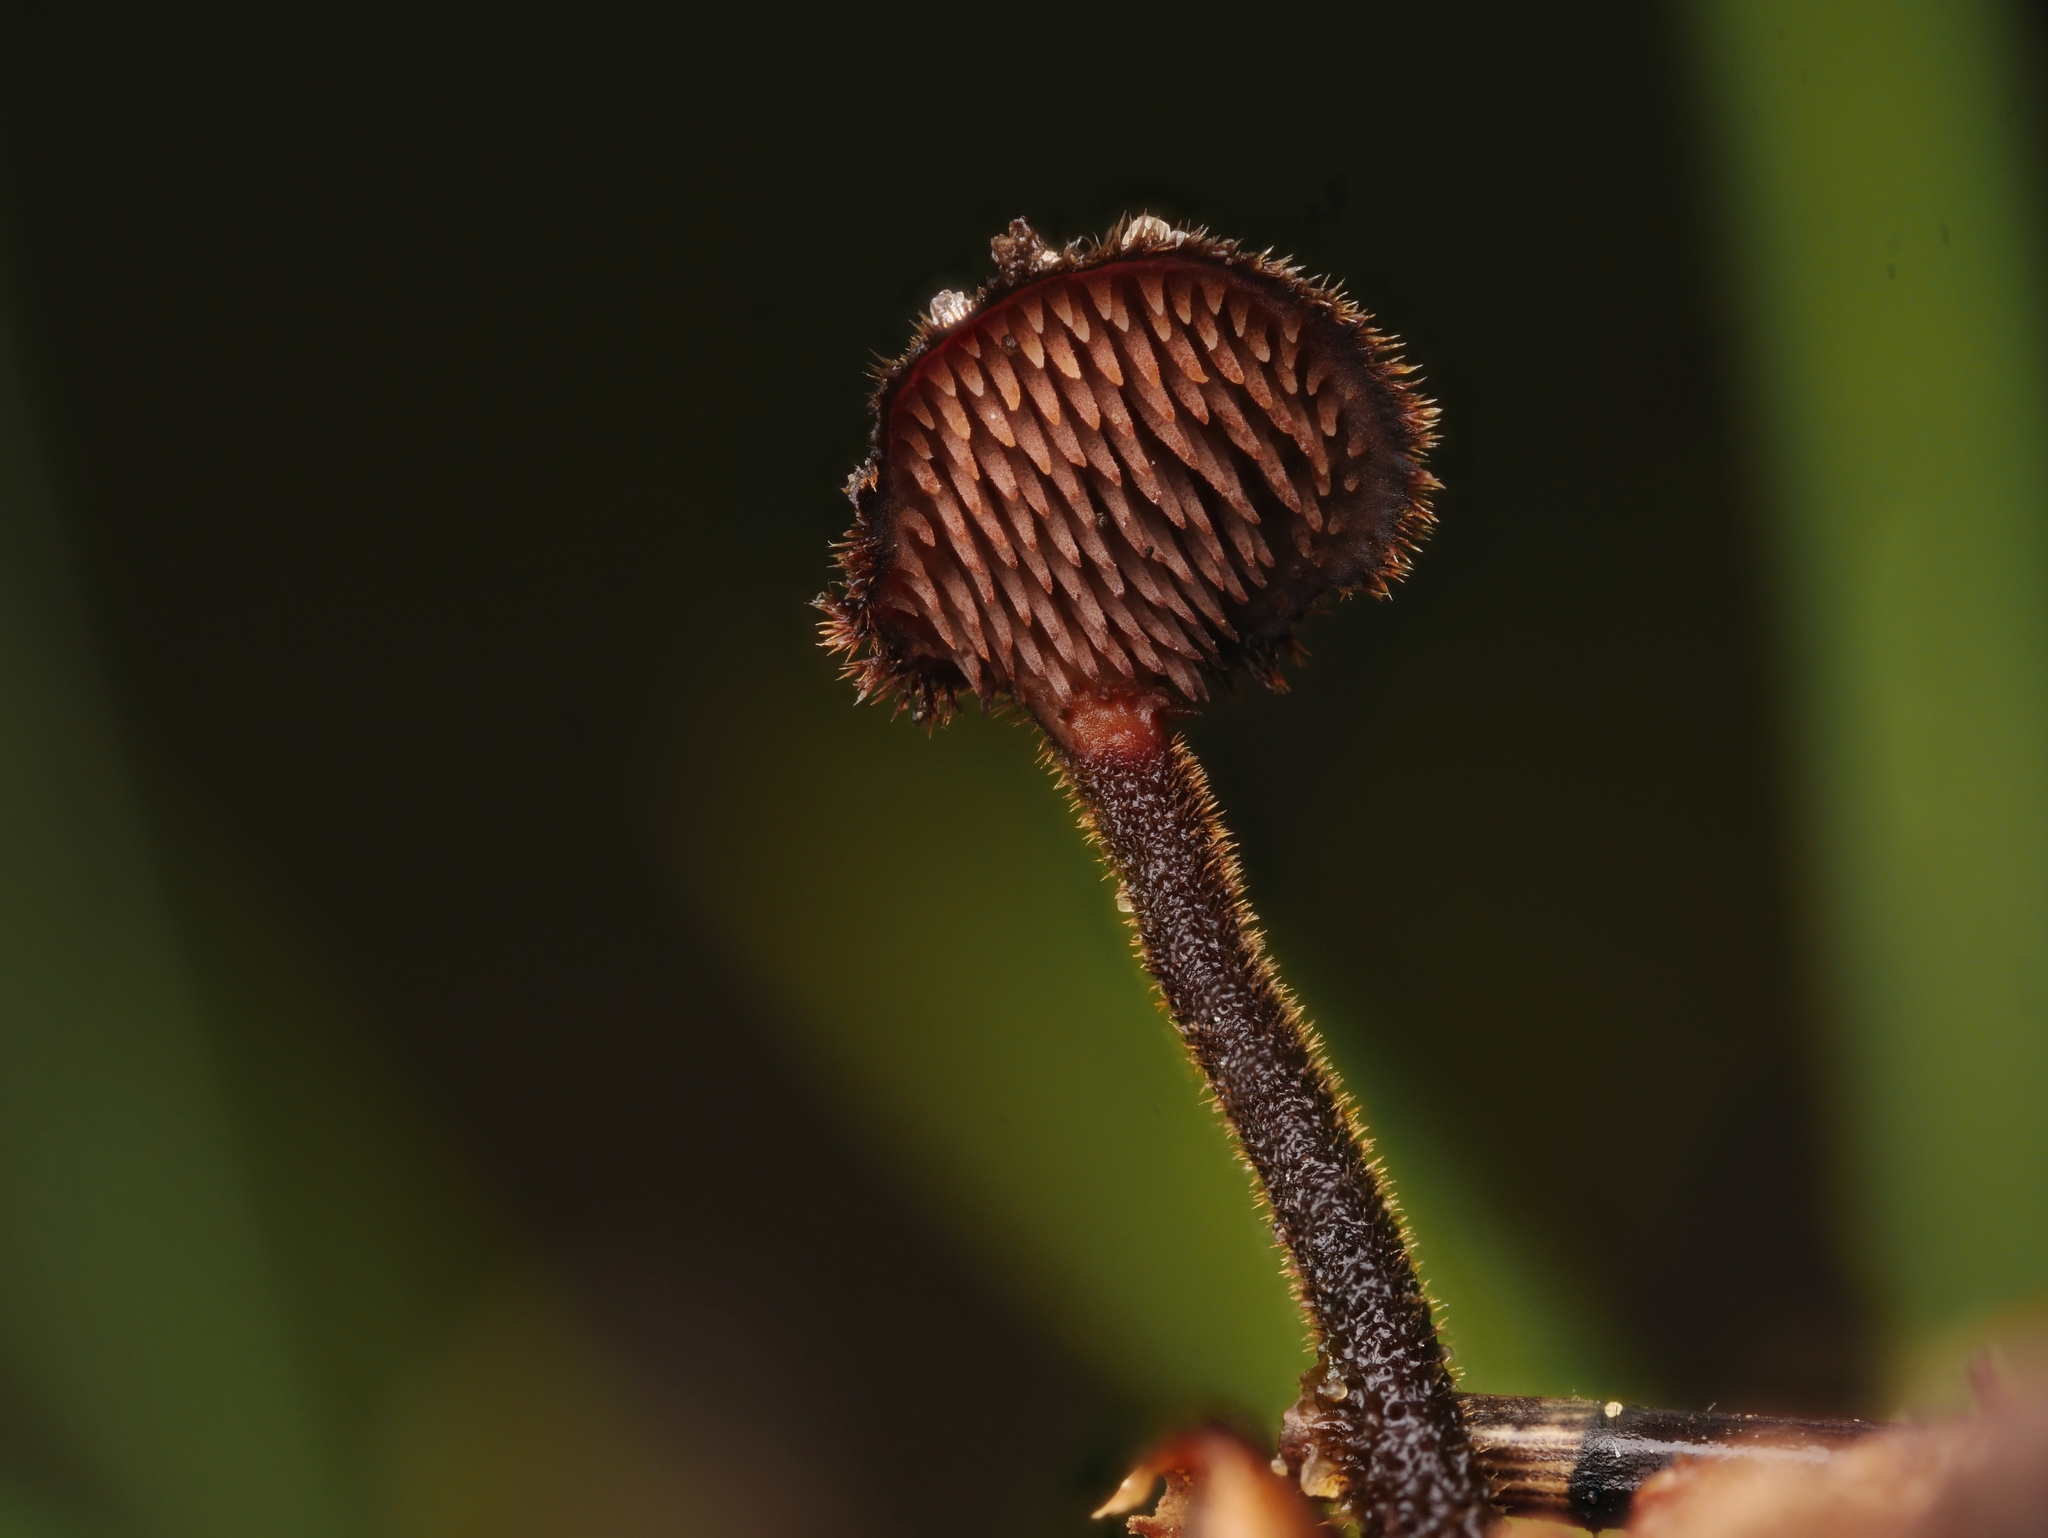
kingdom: Fungi
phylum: Basidiomycota
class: Agaricomycetes
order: Russulales
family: Auriscalpiaceae
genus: Auriscalpium
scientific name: Auriscalpium vulgare
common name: Earpick fungus
